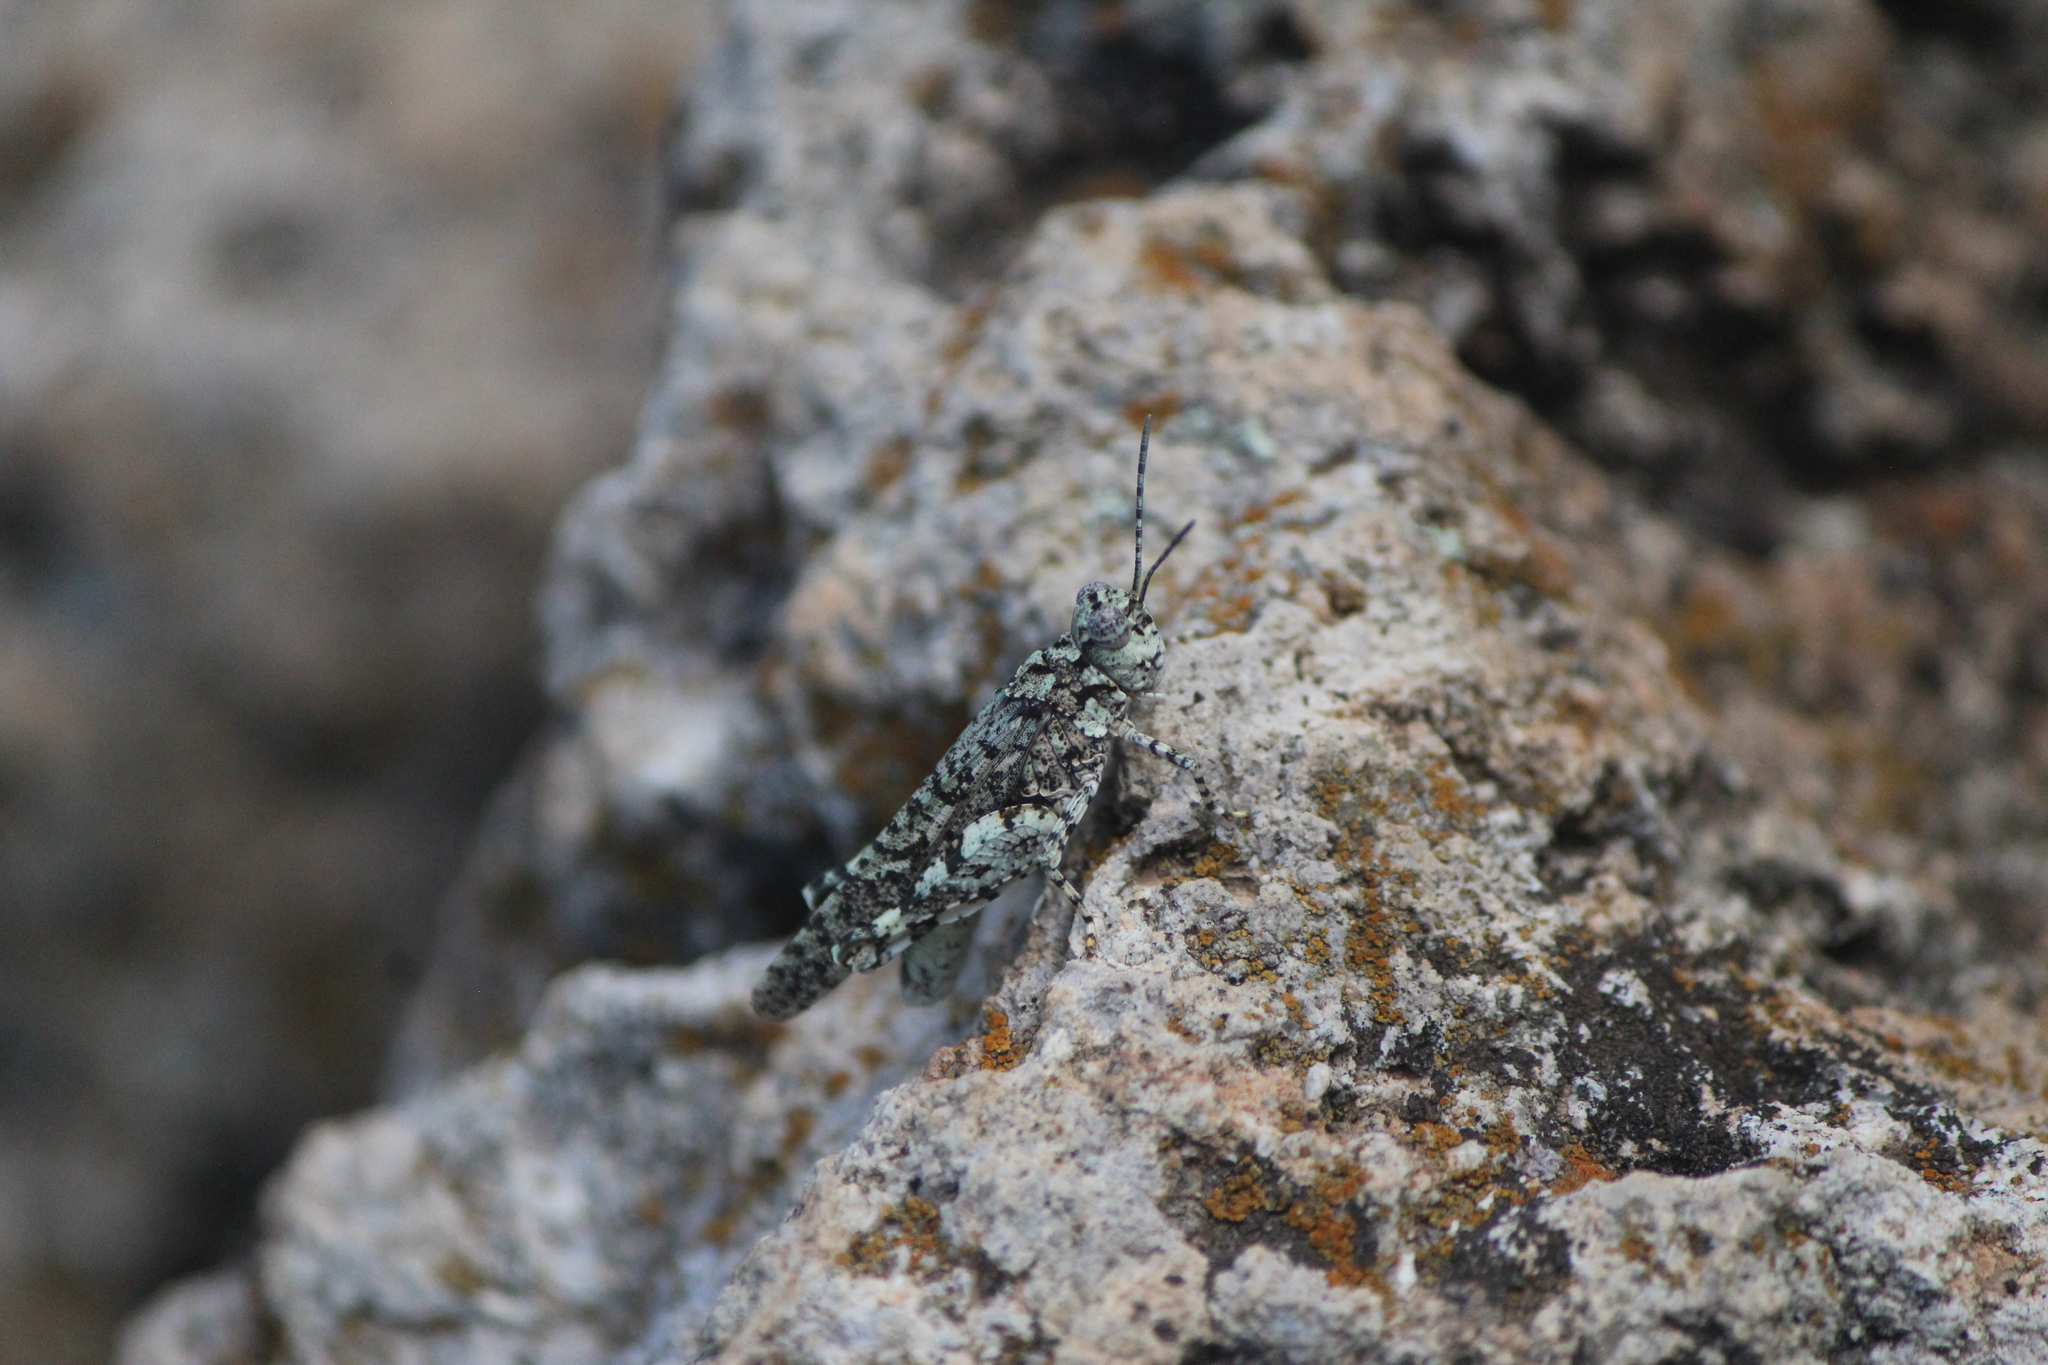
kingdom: Animalia
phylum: Arthropoda
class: Insecta
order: Orthoptera
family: Acrididae
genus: Leuronotina
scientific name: Leuronotina ritensis
